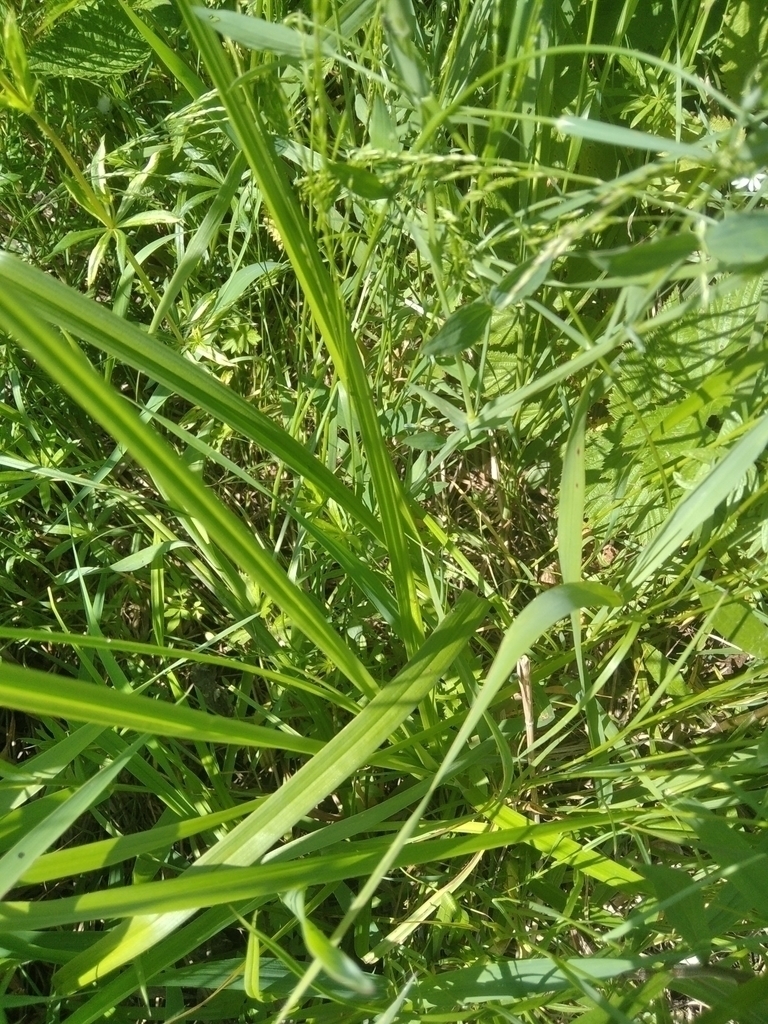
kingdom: Plantae
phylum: Tracheophyta
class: Liliopsida
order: Poales
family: Cyperaceae
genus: Carex
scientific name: Carex vulpina
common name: True fox-sedge
